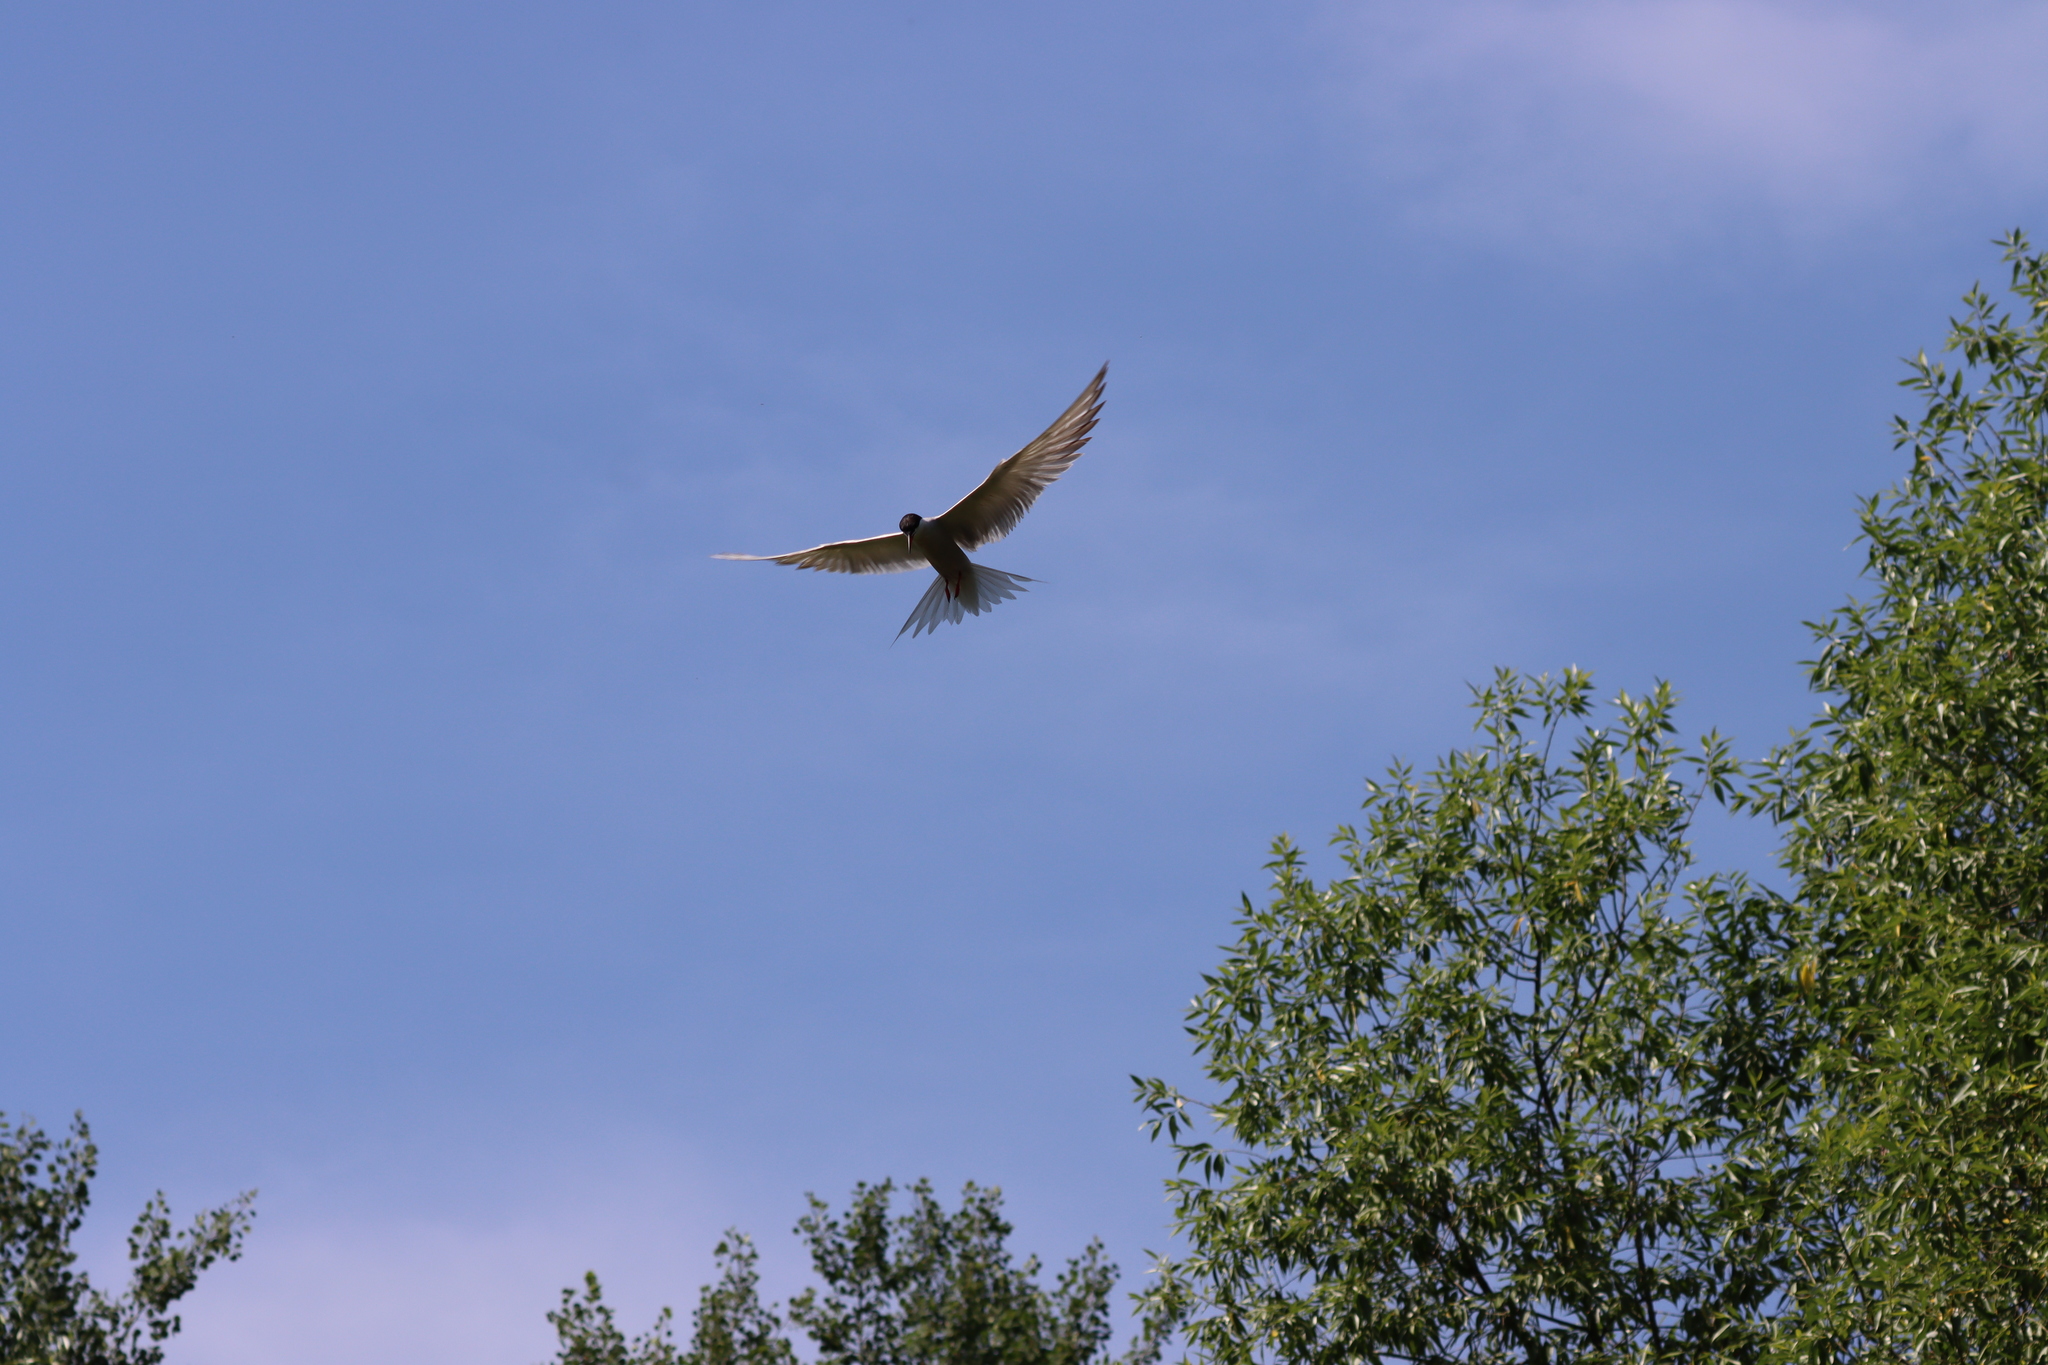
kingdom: Animalia
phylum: Chordata
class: Aves
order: Charadriiformes
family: Laridae
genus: Sterna
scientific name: Sterna hirundo
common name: Common tern
